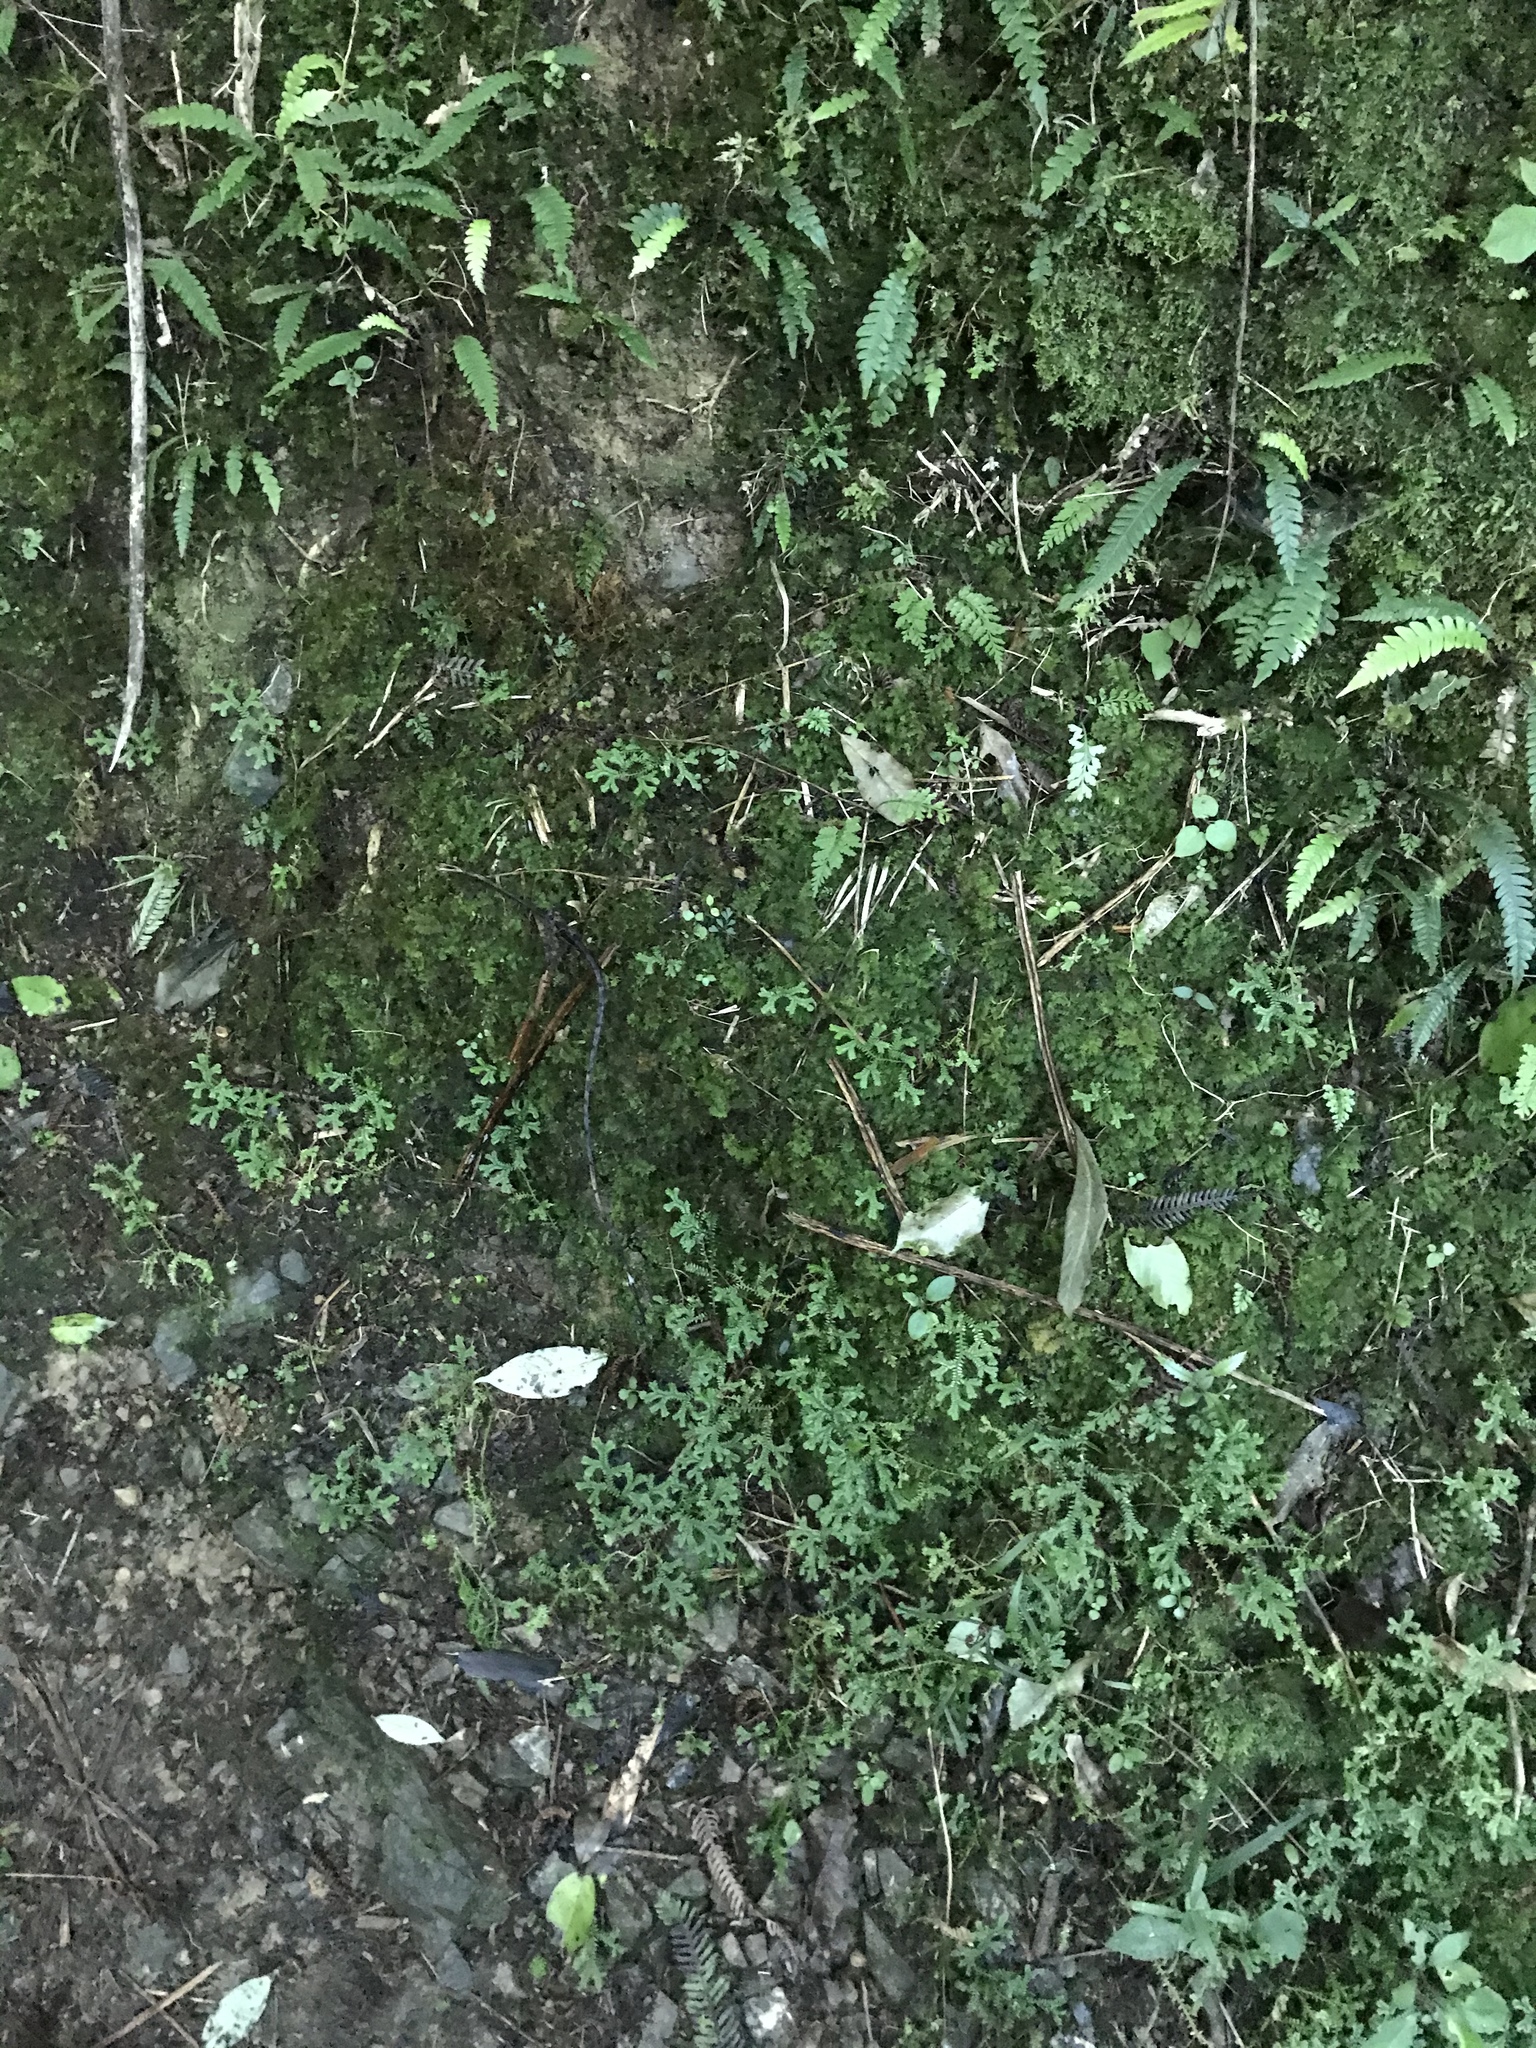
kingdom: Plantae
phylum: Tracheophyta
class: Lycopodiopsida
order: Selaginellales
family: Selaginellaceae
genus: Selaginella
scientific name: Selaginella kraussiana
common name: Krauss' spikemoss
